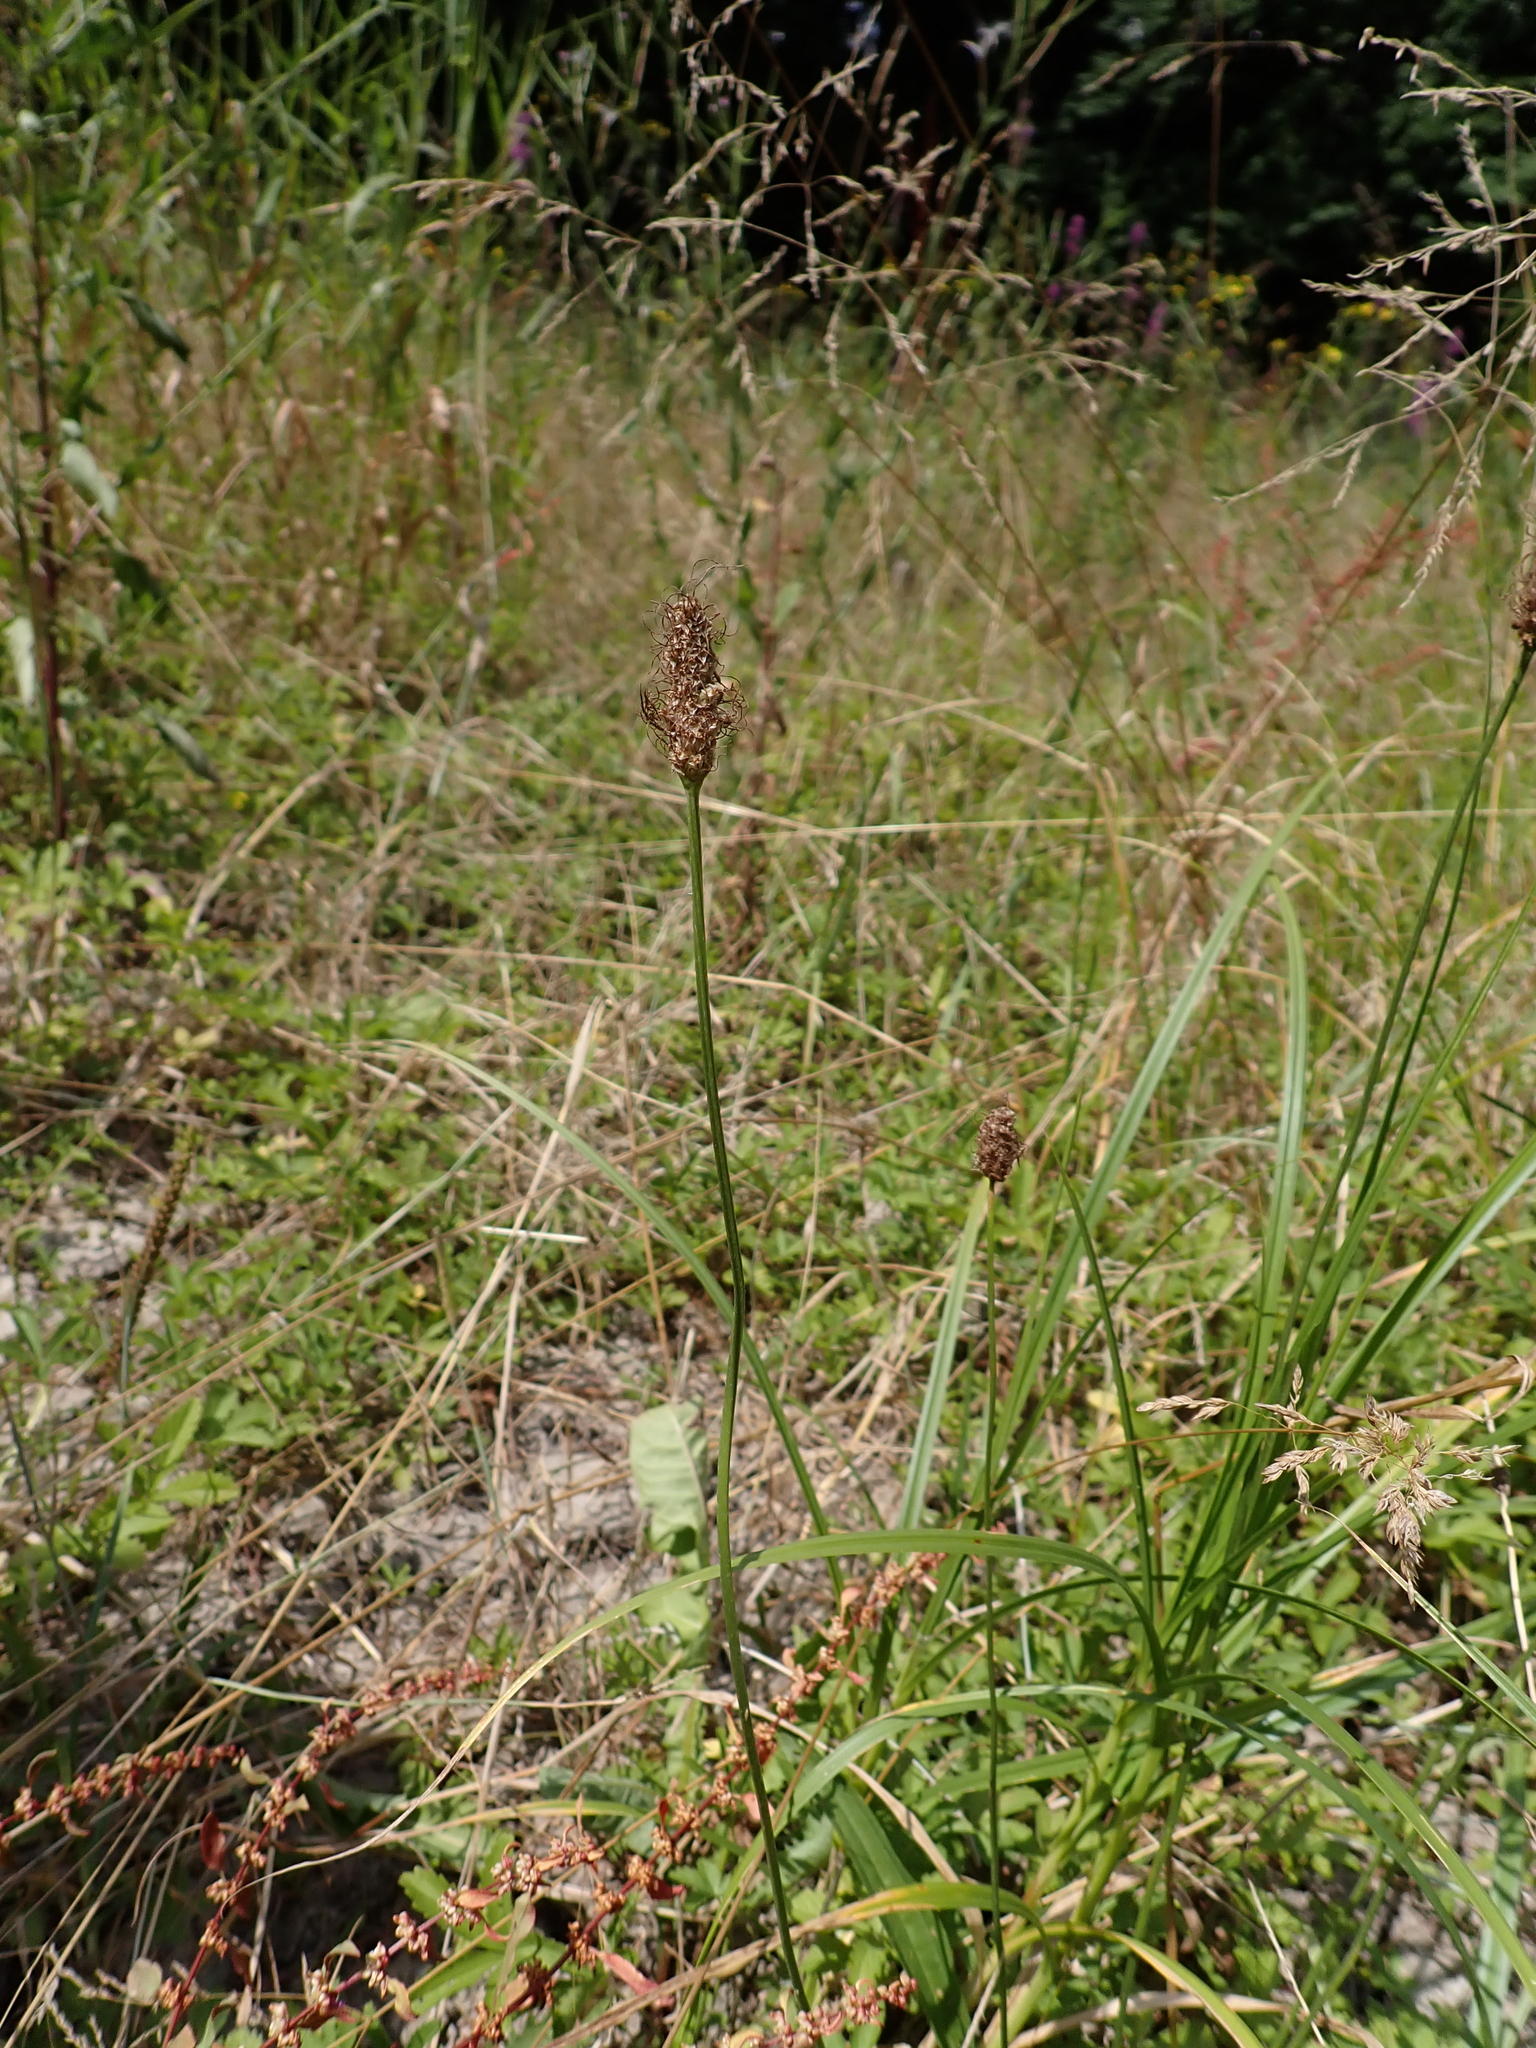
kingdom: Plantae
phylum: Tracheophyta
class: Magnoliopsida
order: Lamiales
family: Plantaginaceae
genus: Plantago
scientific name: Plantago lanceolata
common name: Ribwort plantain
